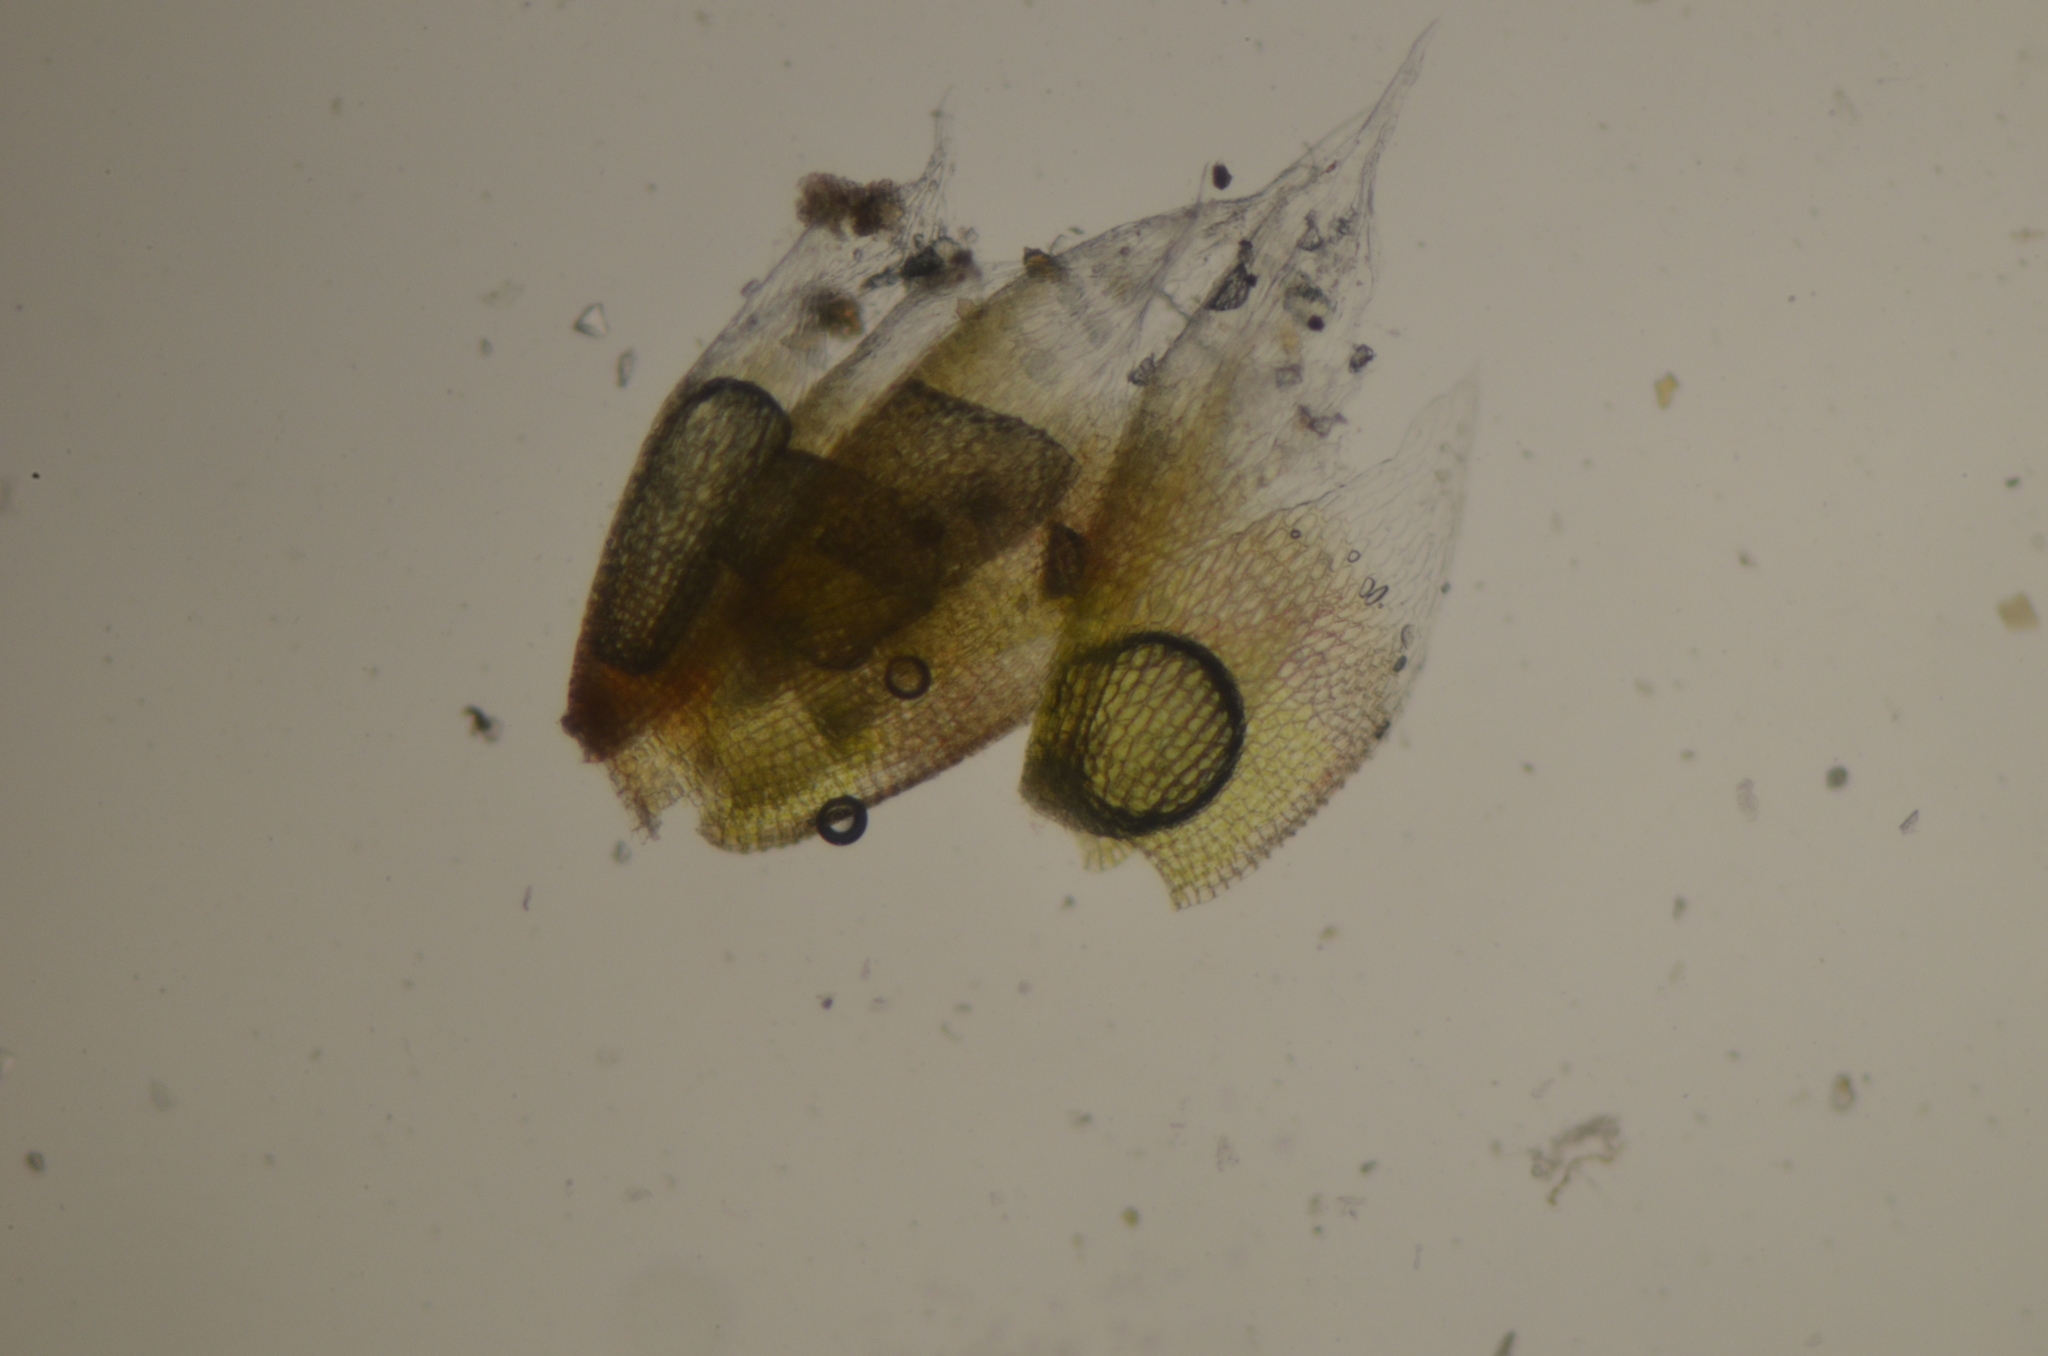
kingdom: Plantae
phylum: Bryophyta
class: Bryopsida
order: Bryales
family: Bryaceae
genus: Bryum
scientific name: Bryum argenteum
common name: Silver-moss
